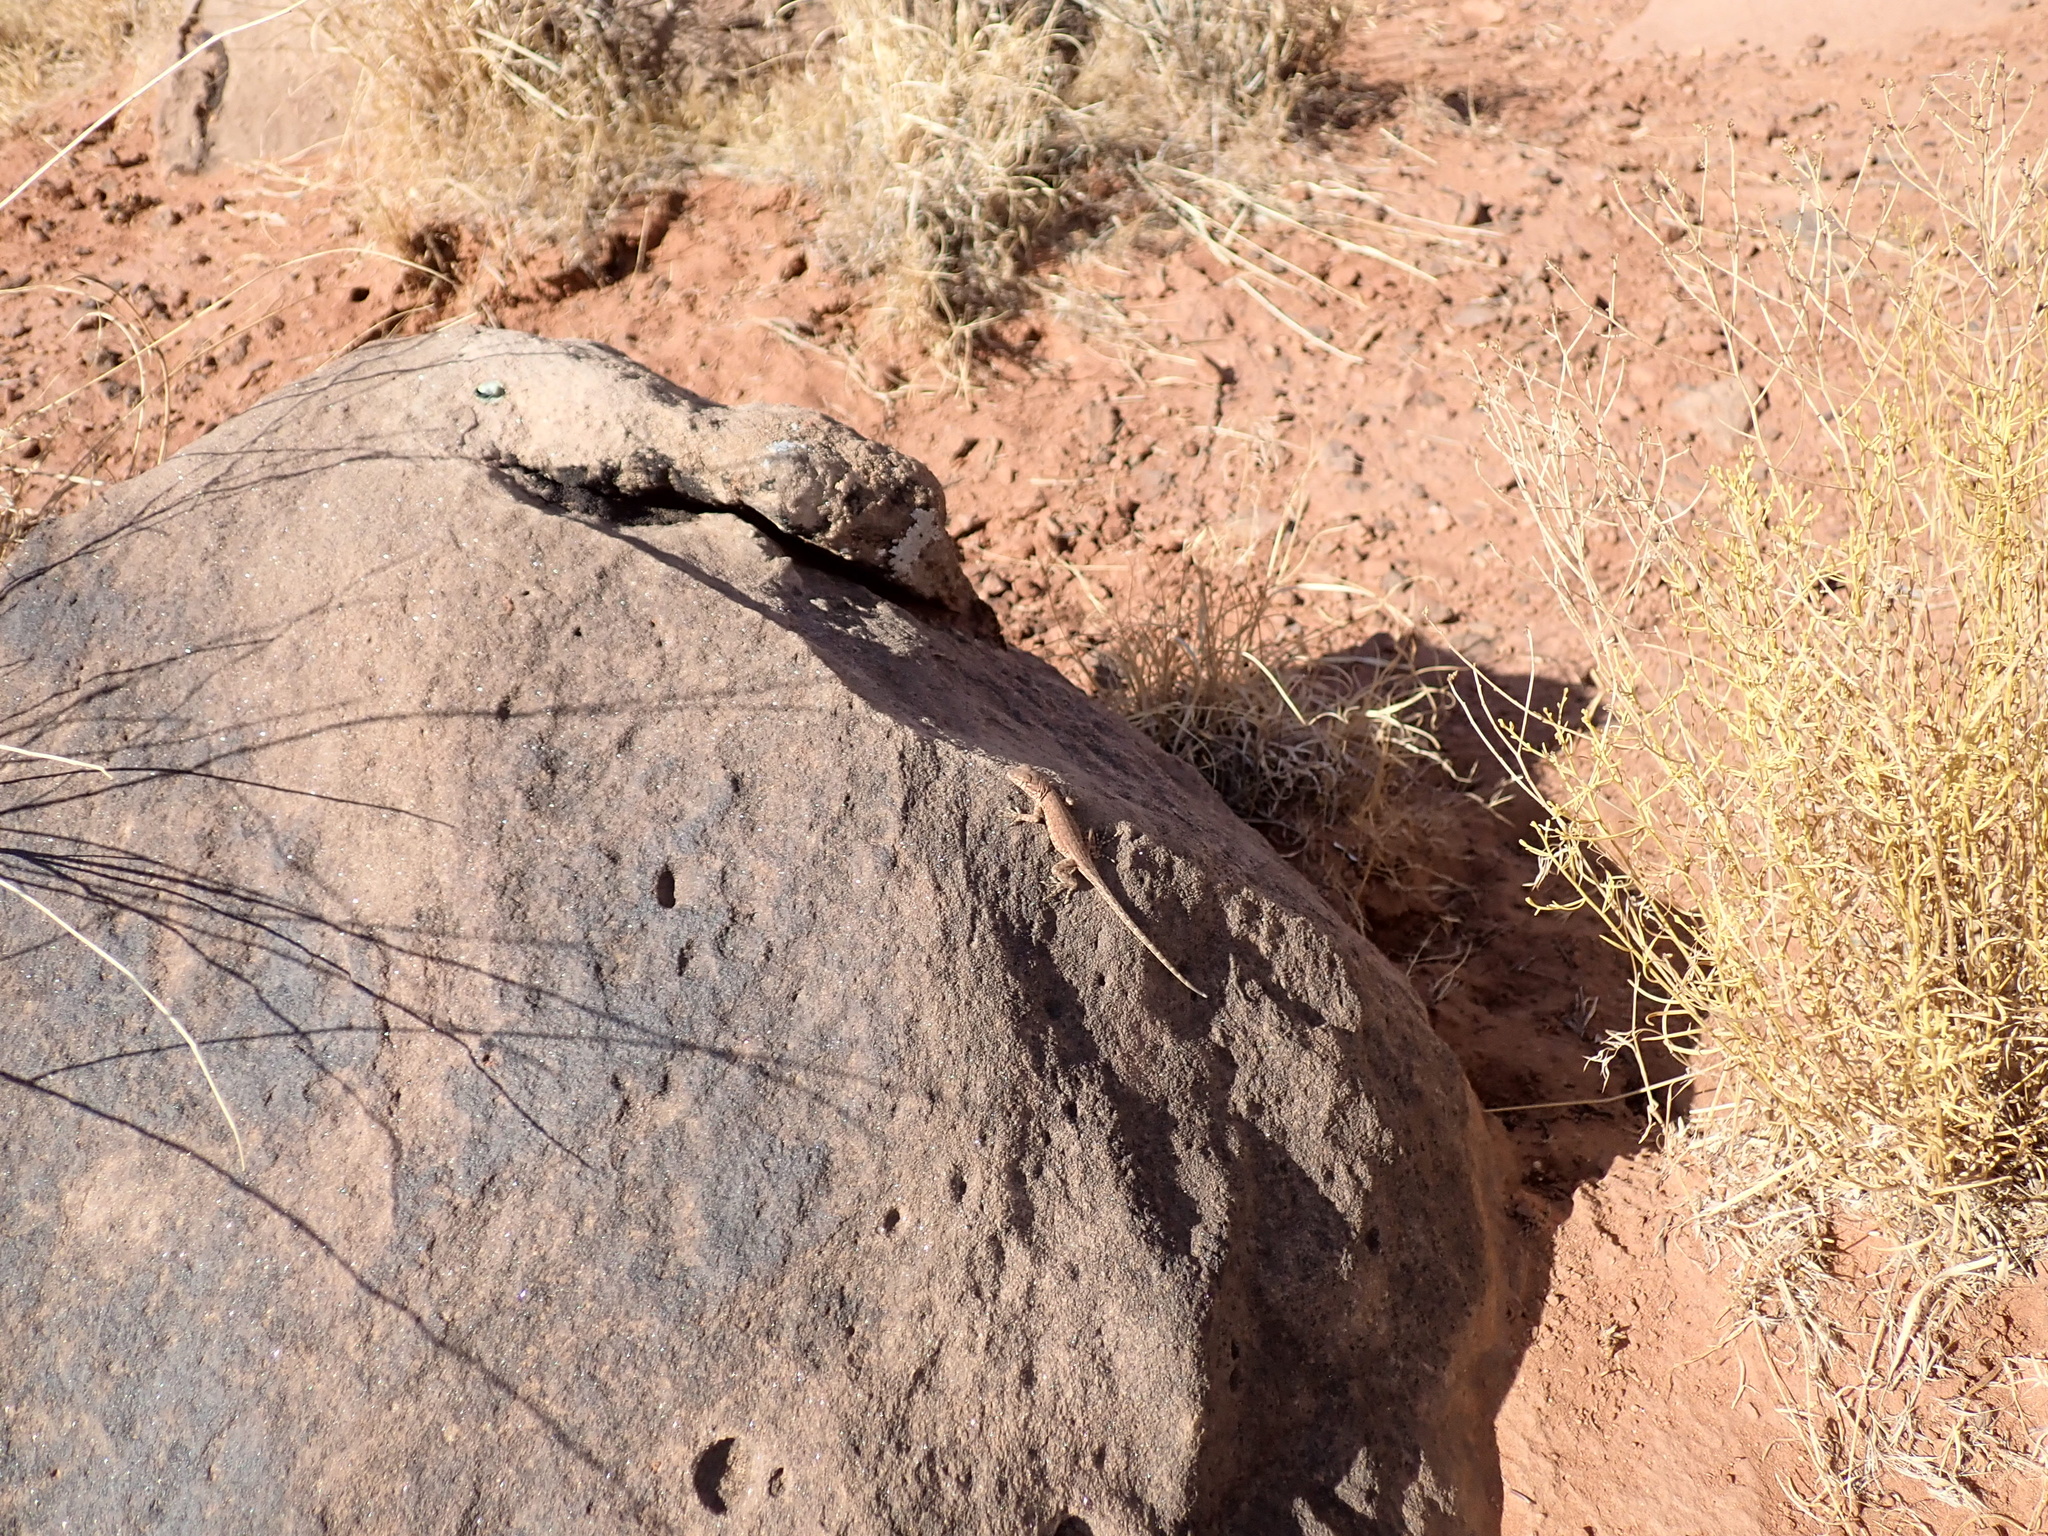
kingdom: Animalia
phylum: Chordata
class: Squamata
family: Phrynosomatidae
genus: Uta
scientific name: Uta stansburiana
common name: Side-blotched lizard
